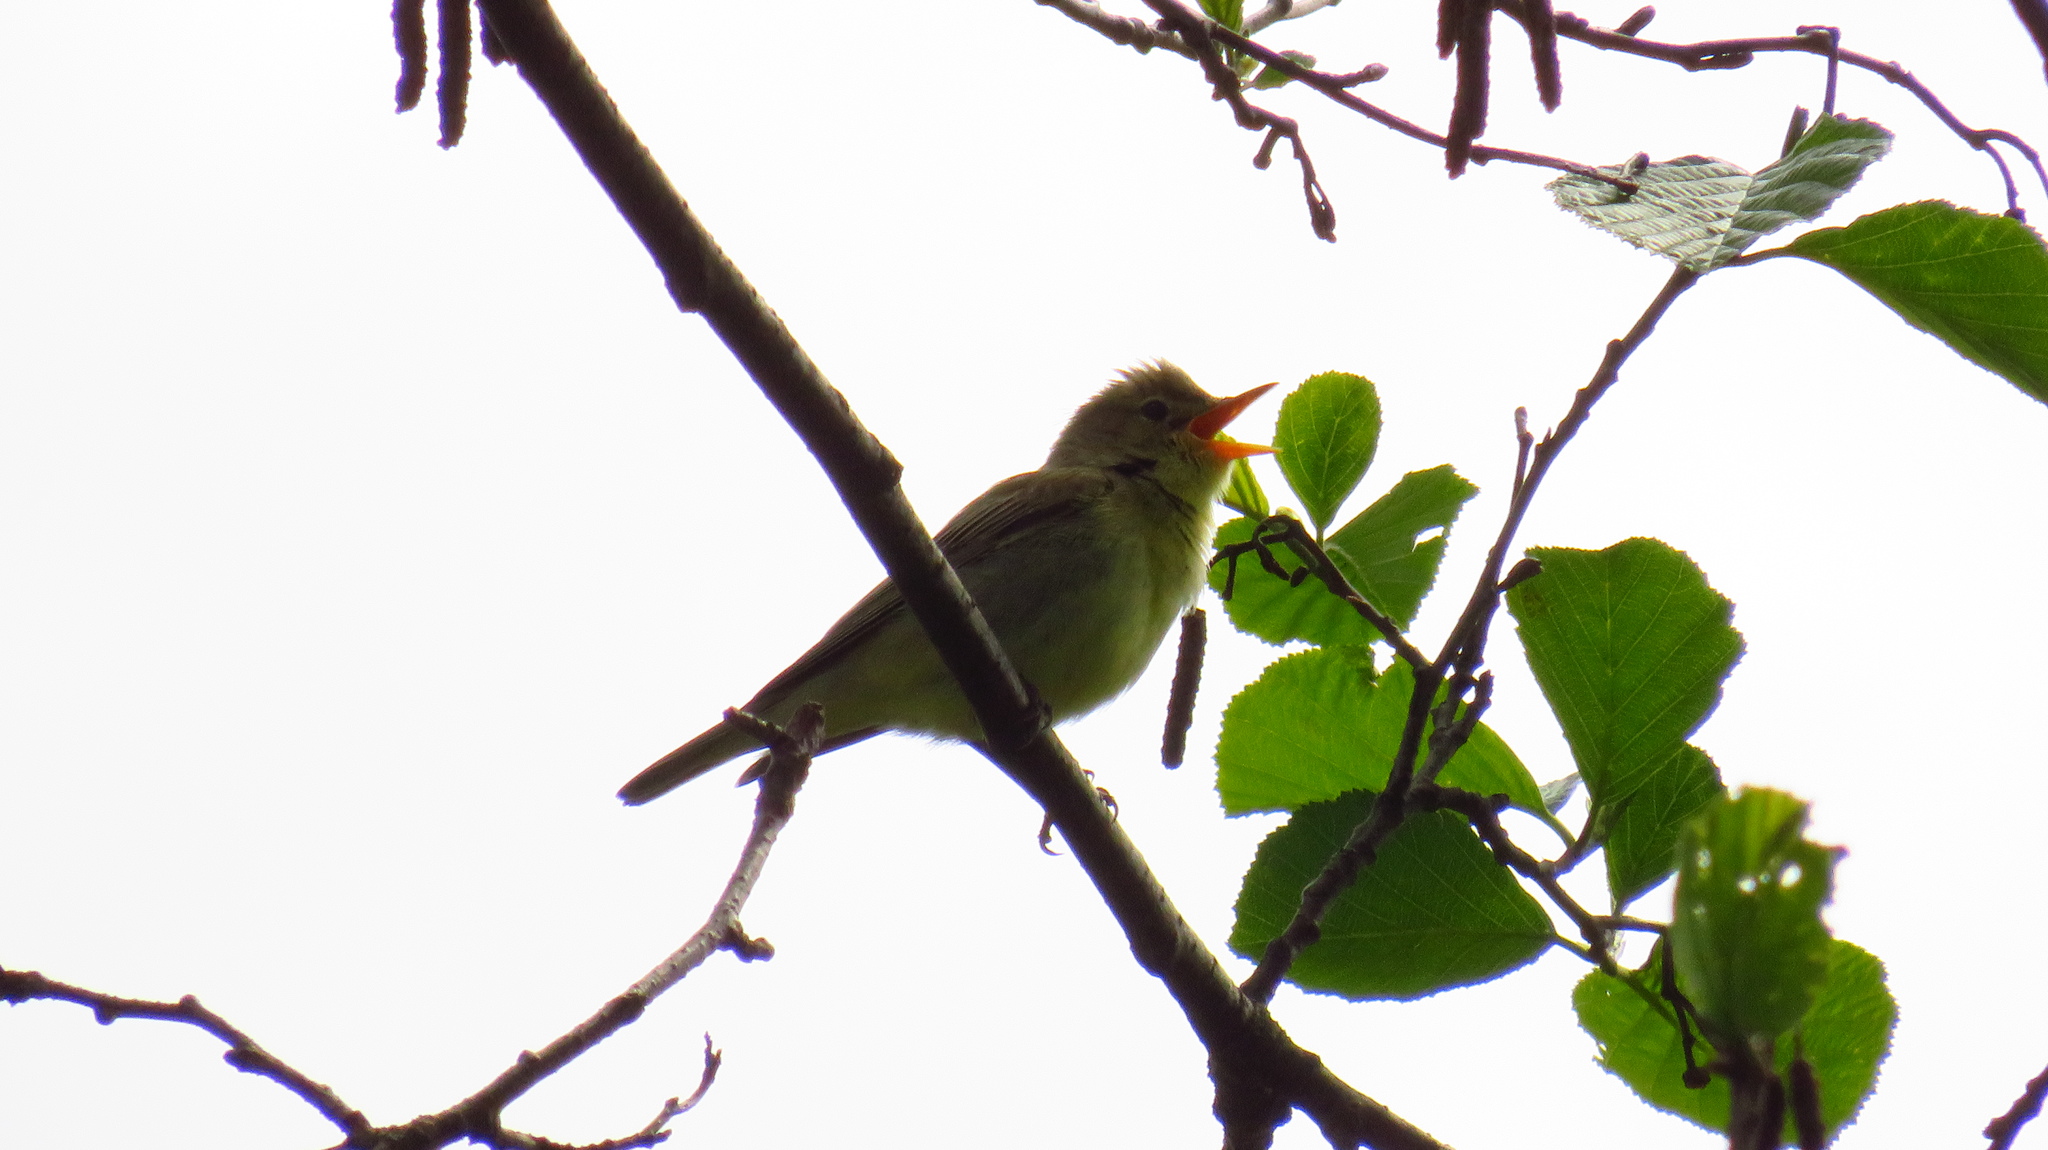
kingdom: Animalia
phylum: Chordata
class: Aves
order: Passeriformes
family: Acrocephalidae
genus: Hippolais
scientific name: Hippolais icterina
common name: Icterine warbler
